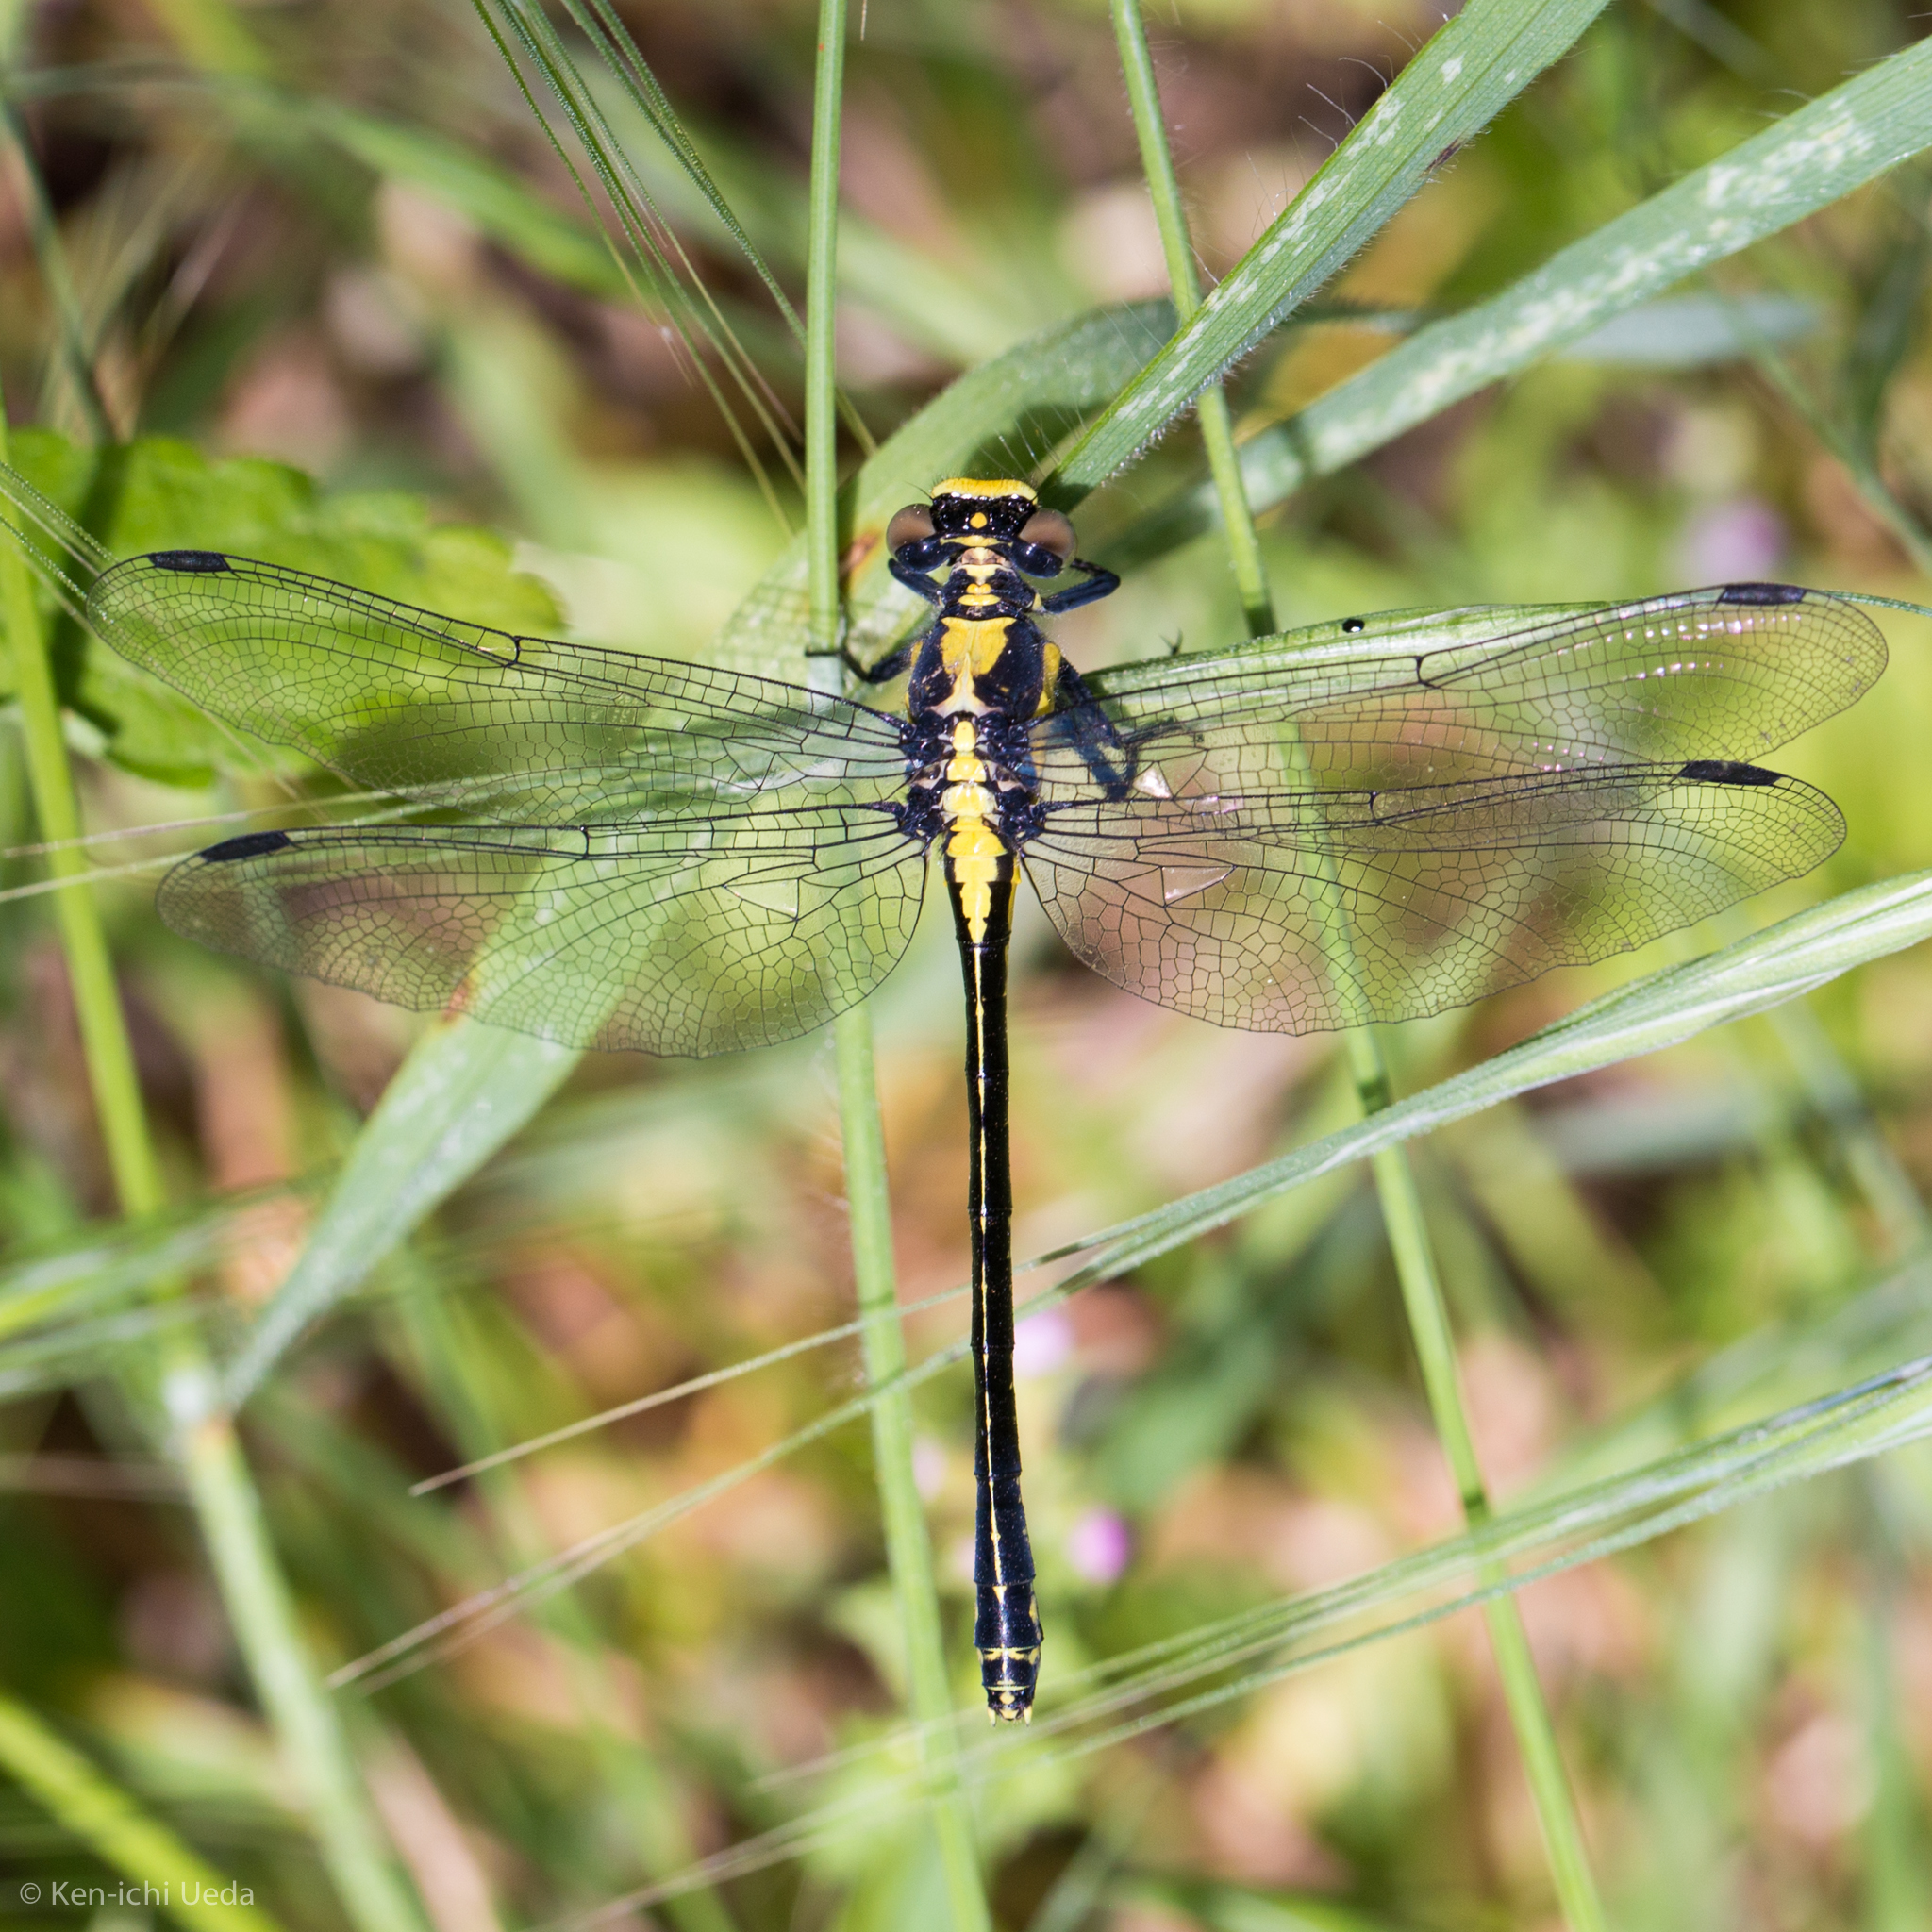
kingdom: Animalia
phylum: Arthropoda
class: Insecta
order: Odonata
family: Gomphidae
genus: Octogomphus
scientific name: Octogomphus specularis
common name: Grappletail
